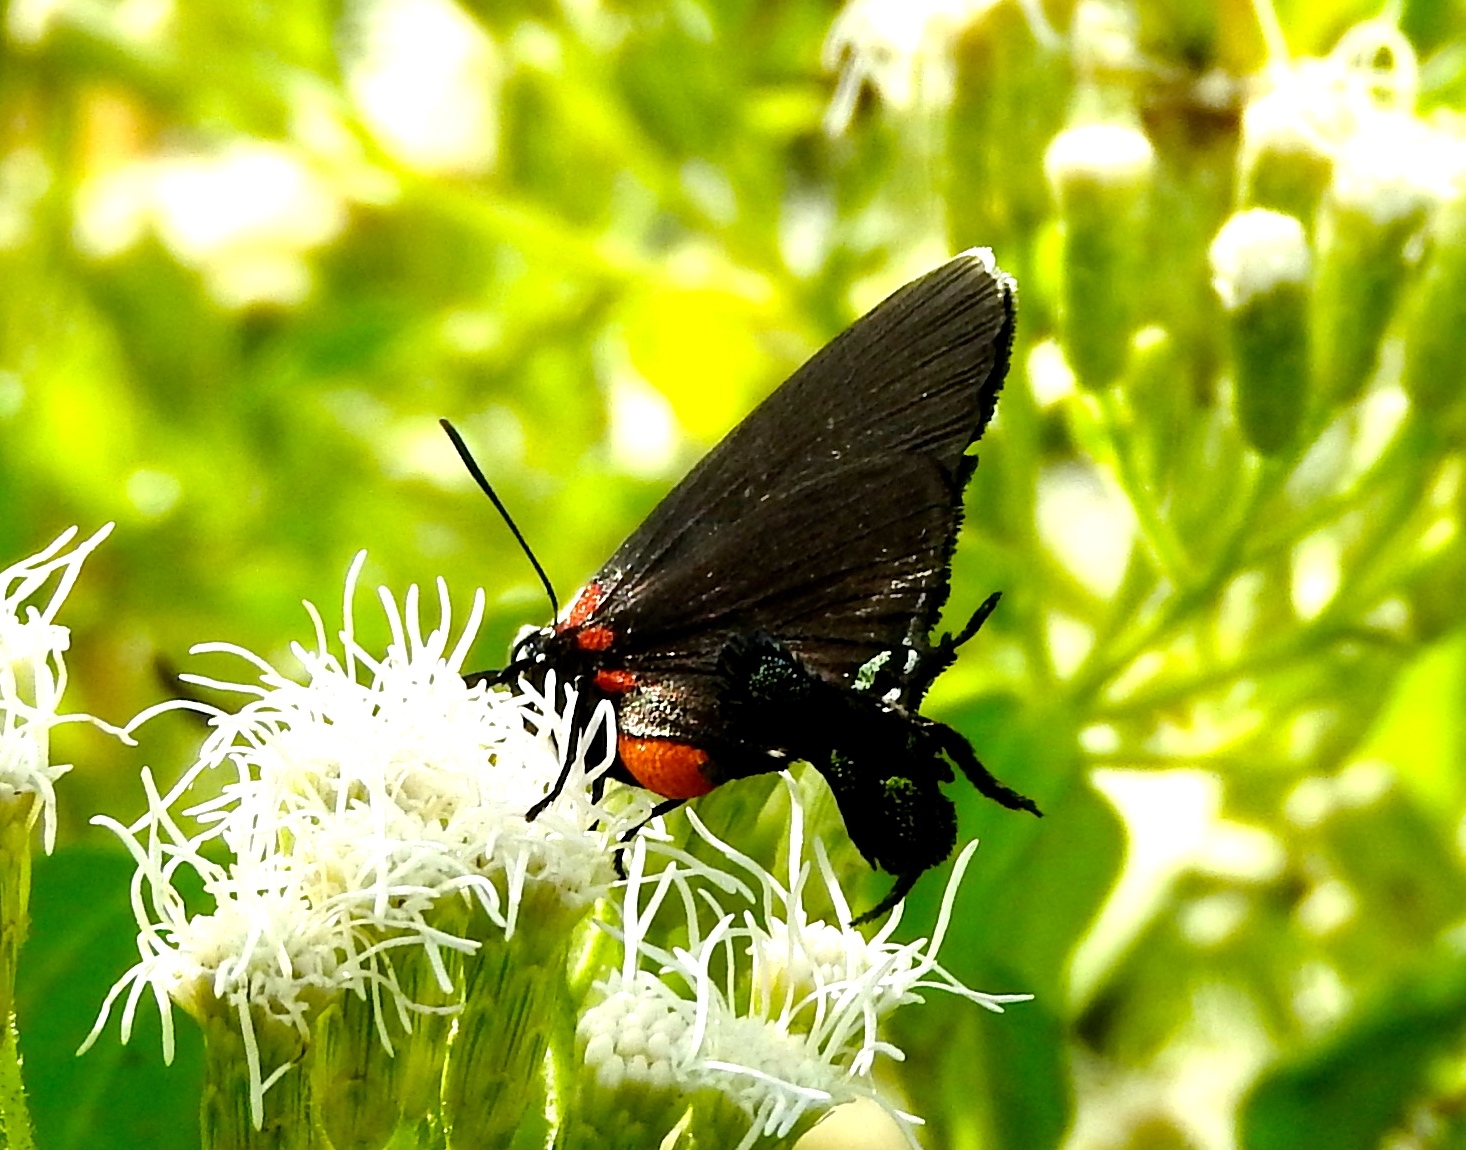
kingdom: Animalia
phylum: Arthropoda
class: Insecta
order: Lepidoptera
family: Lycaenidae
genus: Atlides
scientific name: Atlides
